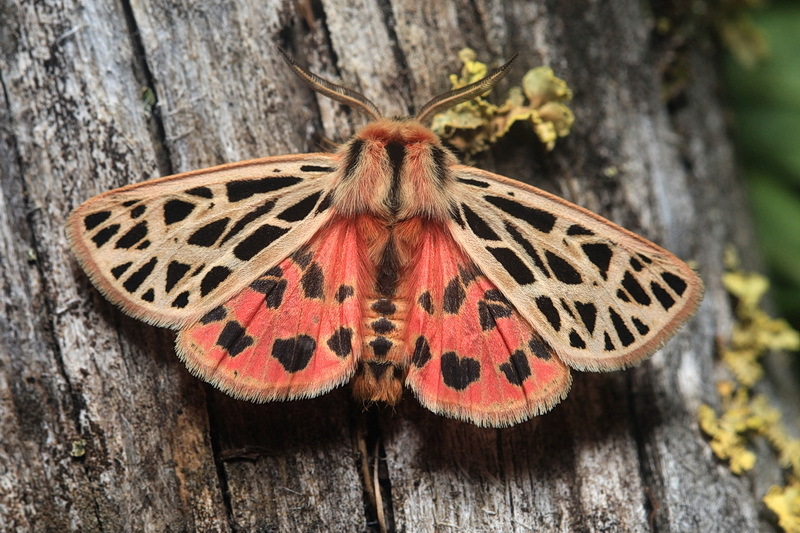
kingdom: Animalia
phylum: Arthropoda
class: Insecta
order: Lepidoptera
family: Erebidae
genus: Chelis
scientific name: Chelis dahurica
